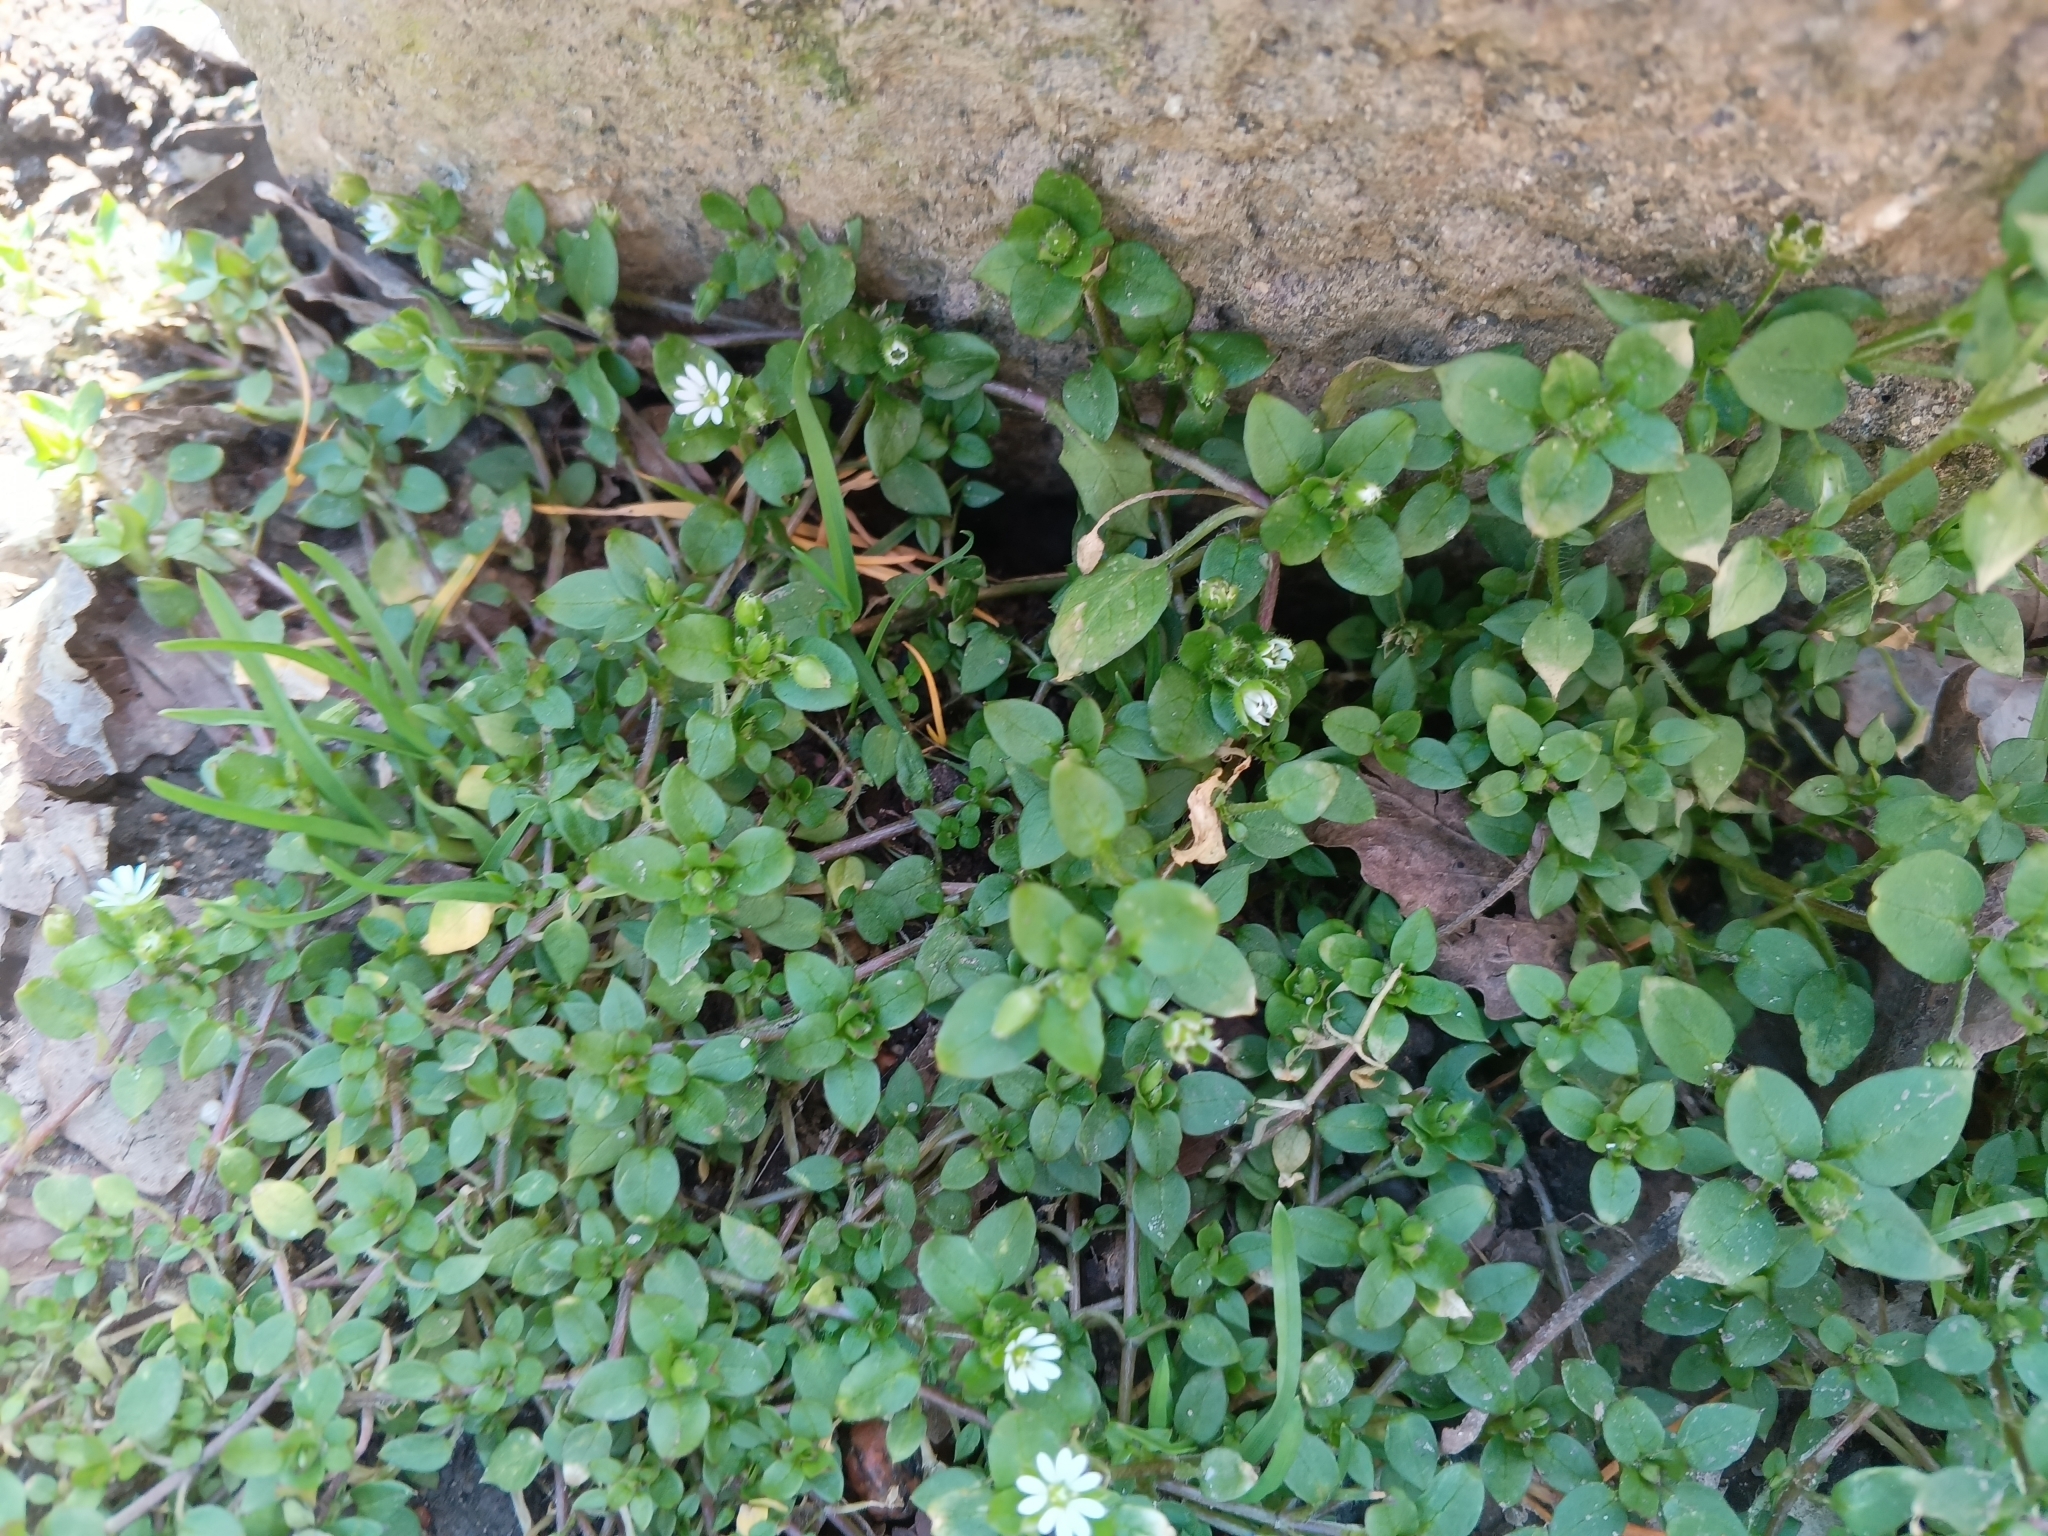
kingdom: Plantae
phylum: Tracheophyta
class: Magnoliopsida
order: Caryophyllales
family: Caryophyllaceae
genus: Stellaria
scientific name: Stellaria media
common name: Common chickweed
